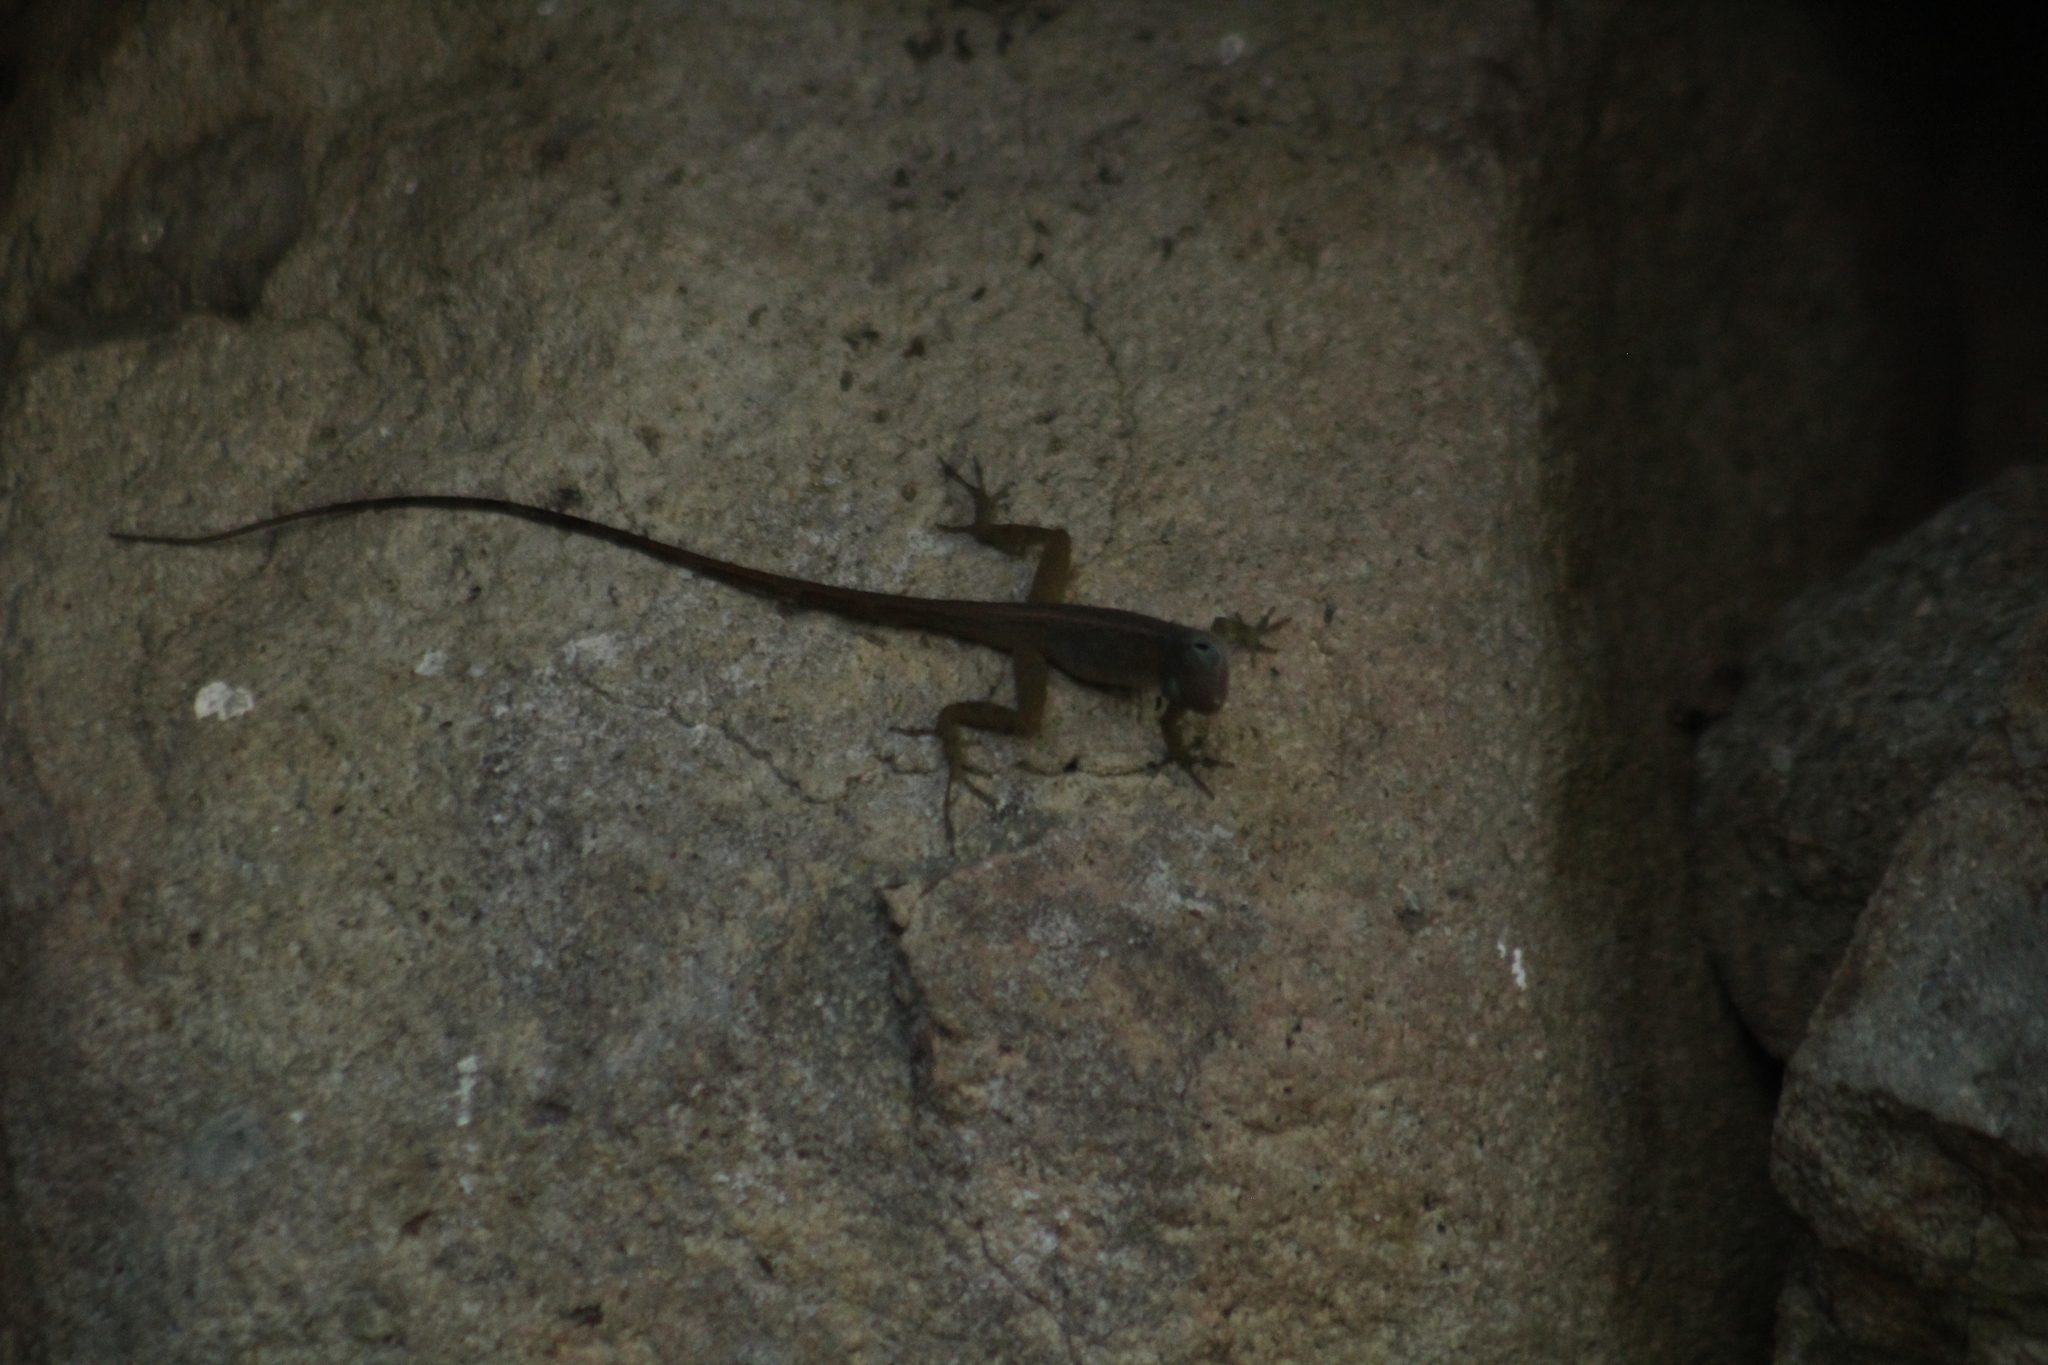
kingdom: Animalia
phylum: Chordata
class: Squamata
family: Dactyloidae
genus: Anolis
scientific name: Anolis pogus
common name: Anguilla bank bush anole
